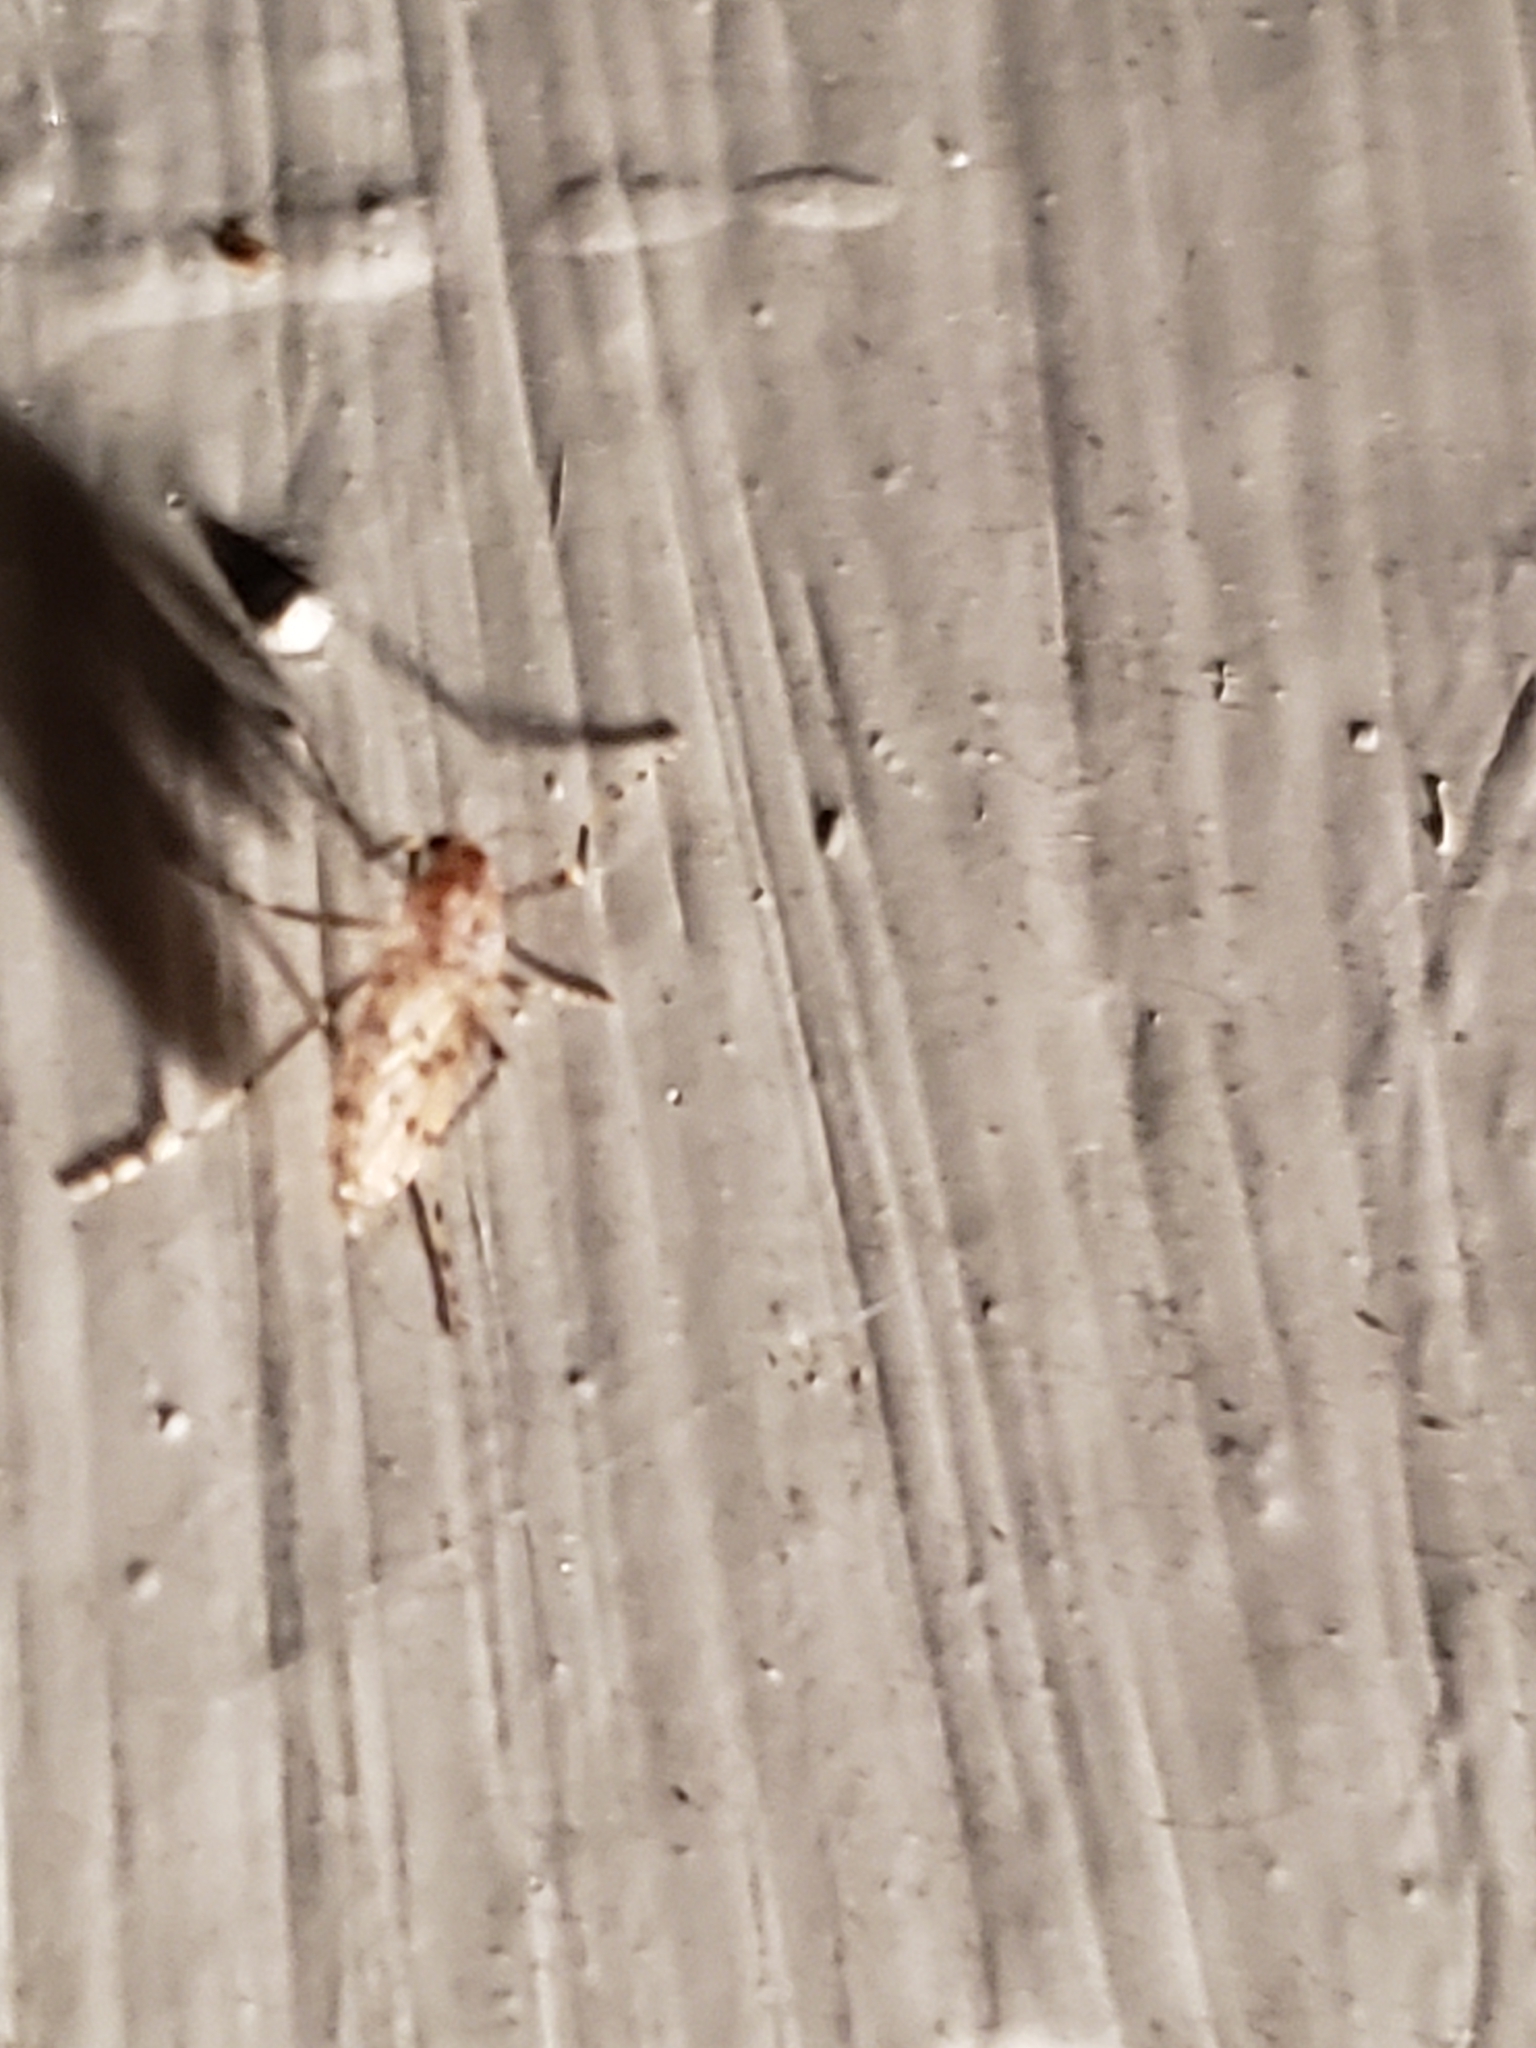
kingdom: Animalia
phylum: Arthropoda
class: Insecta
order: Diptera
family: Chaoboridae
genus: Chaoborus
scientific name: Chaoborus punctipennis
